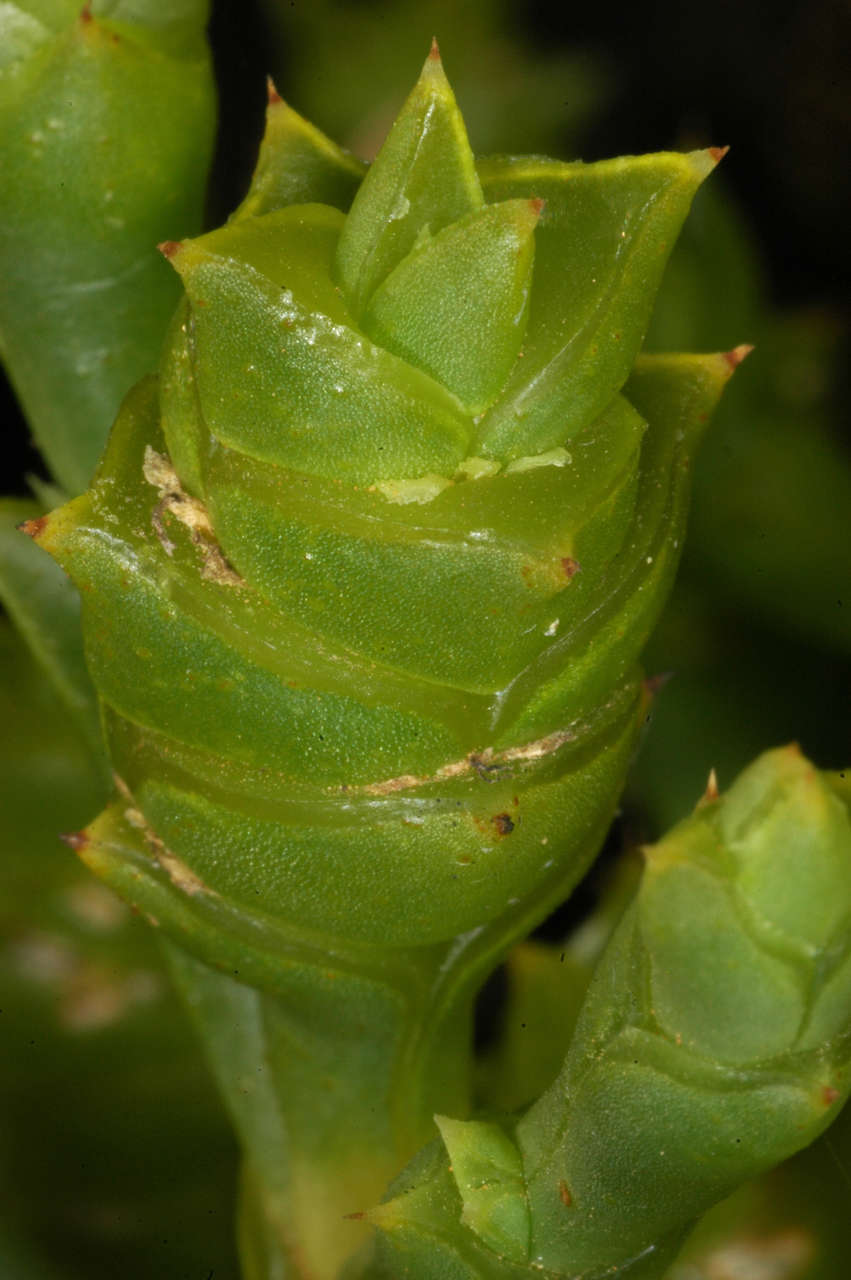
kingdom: Plantae
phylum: Tracheophyta
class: Magnoliopsida
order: Caryophyllales
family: Amaranthaceae
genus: Tecticornia
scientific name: Tecticornia triandra
